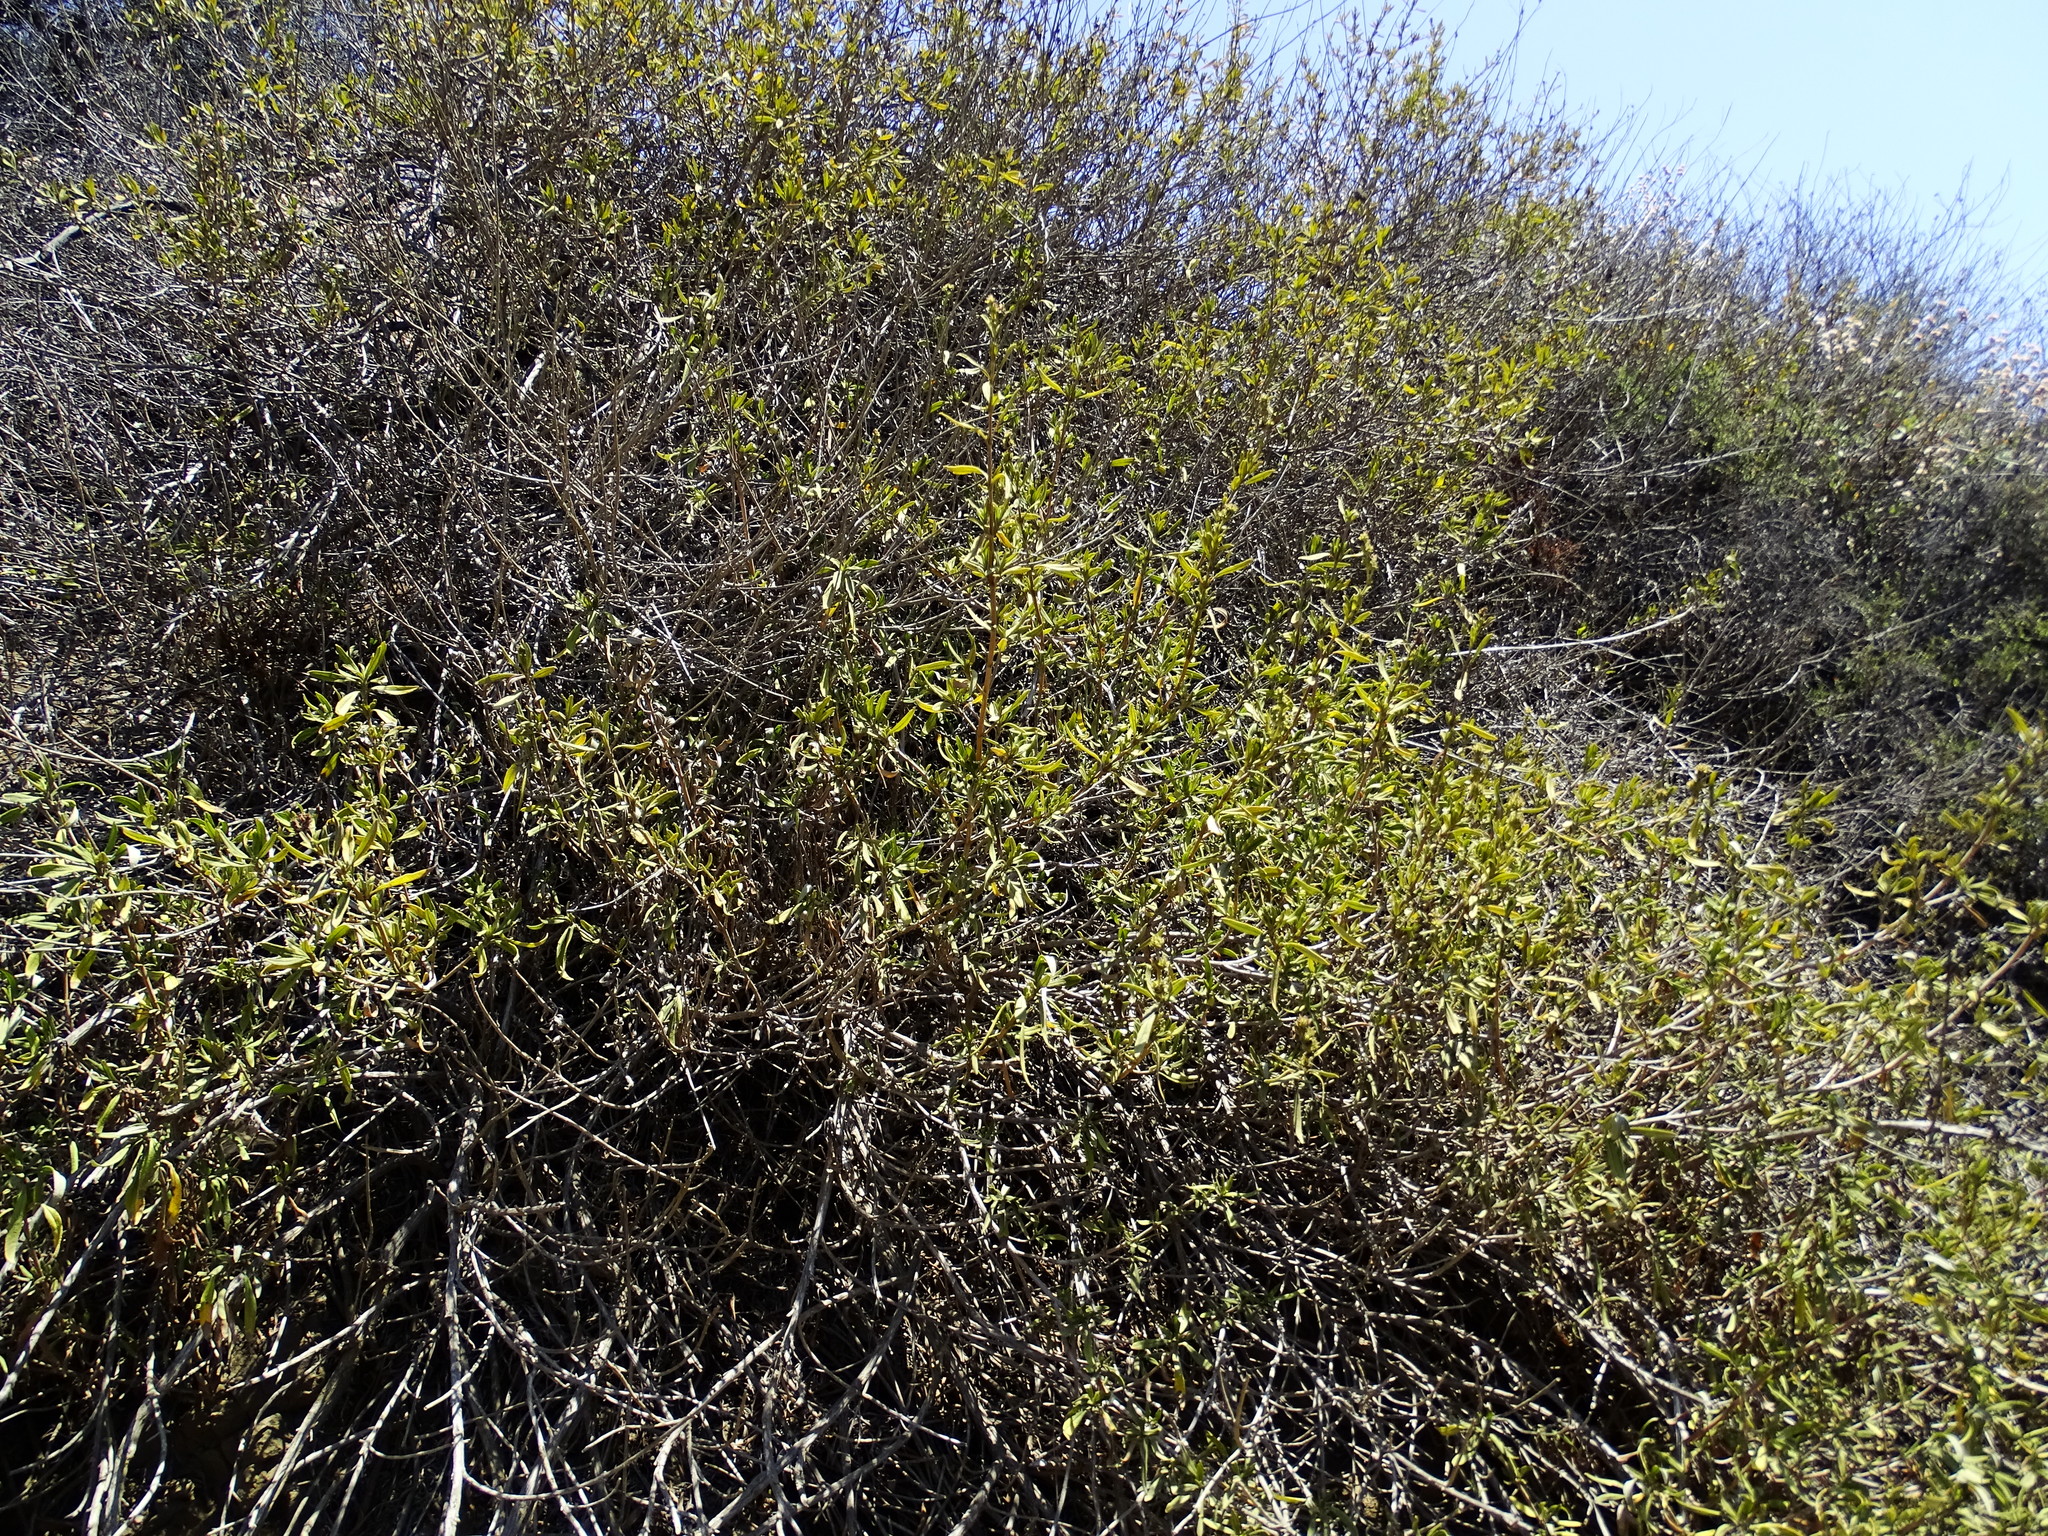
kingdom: Plantae
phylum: Tracheophyta
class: Magnoliopsida
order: Lamiales
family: Lamiaceae
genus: Salvia
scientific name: Salvia mellifera
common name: Black sage
